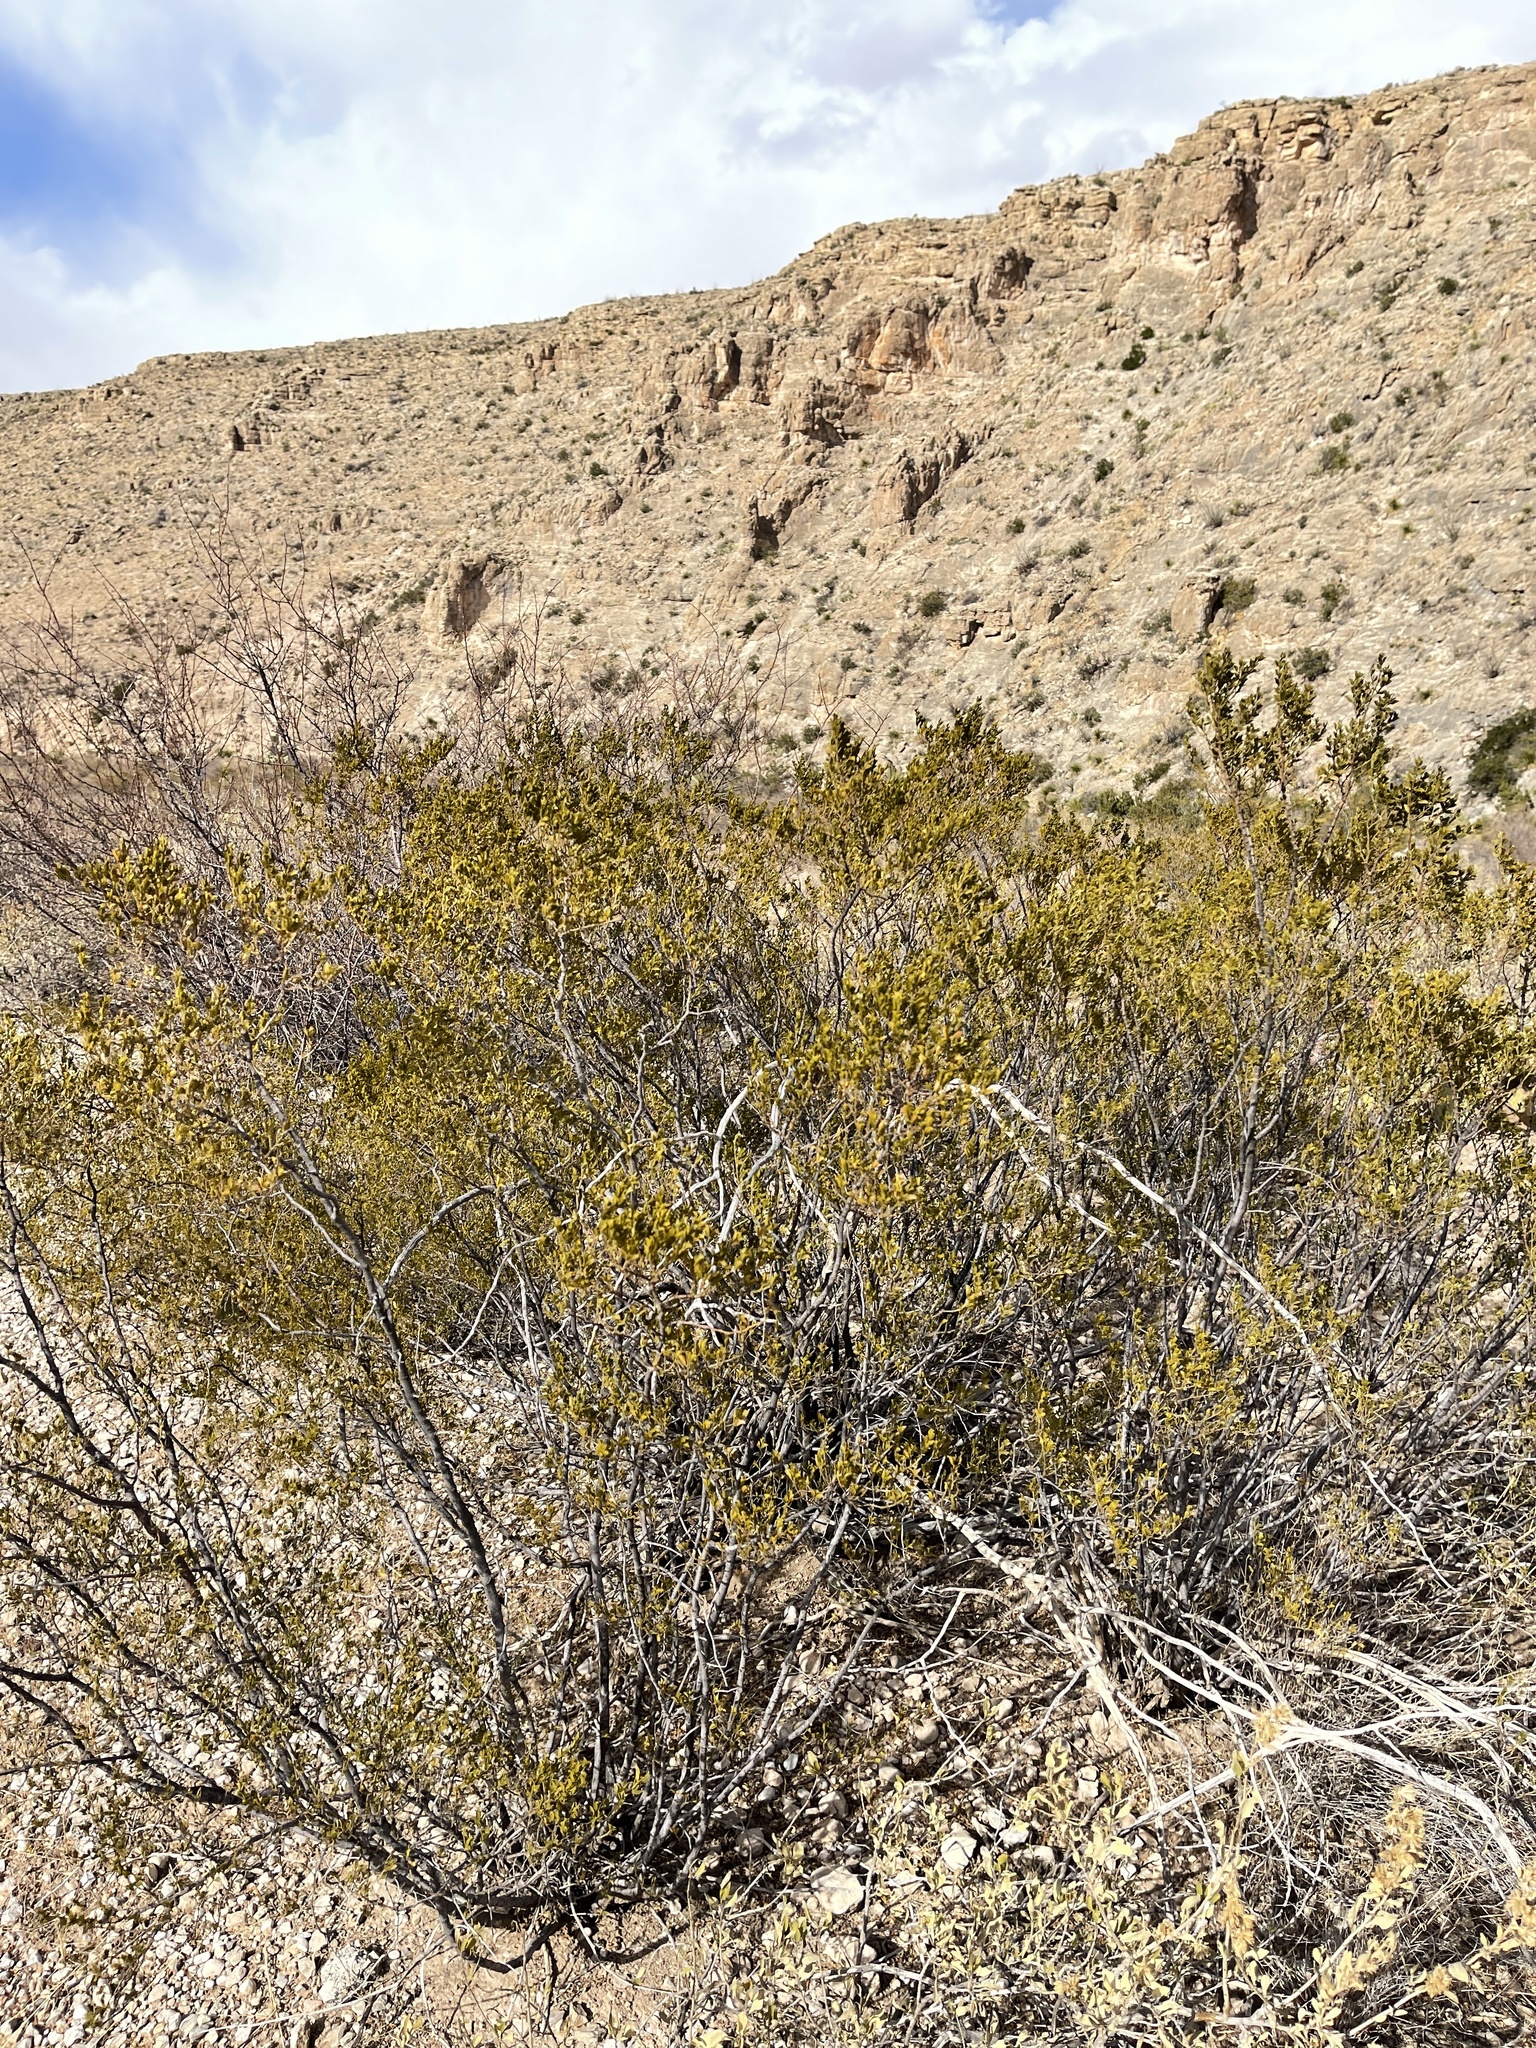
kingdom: Plantae
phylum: Tracheophyta
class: Magnoliopsida
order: Zygophyllales
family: Zygophyllaceae
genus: Larrea
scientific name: Larrea tridentata
